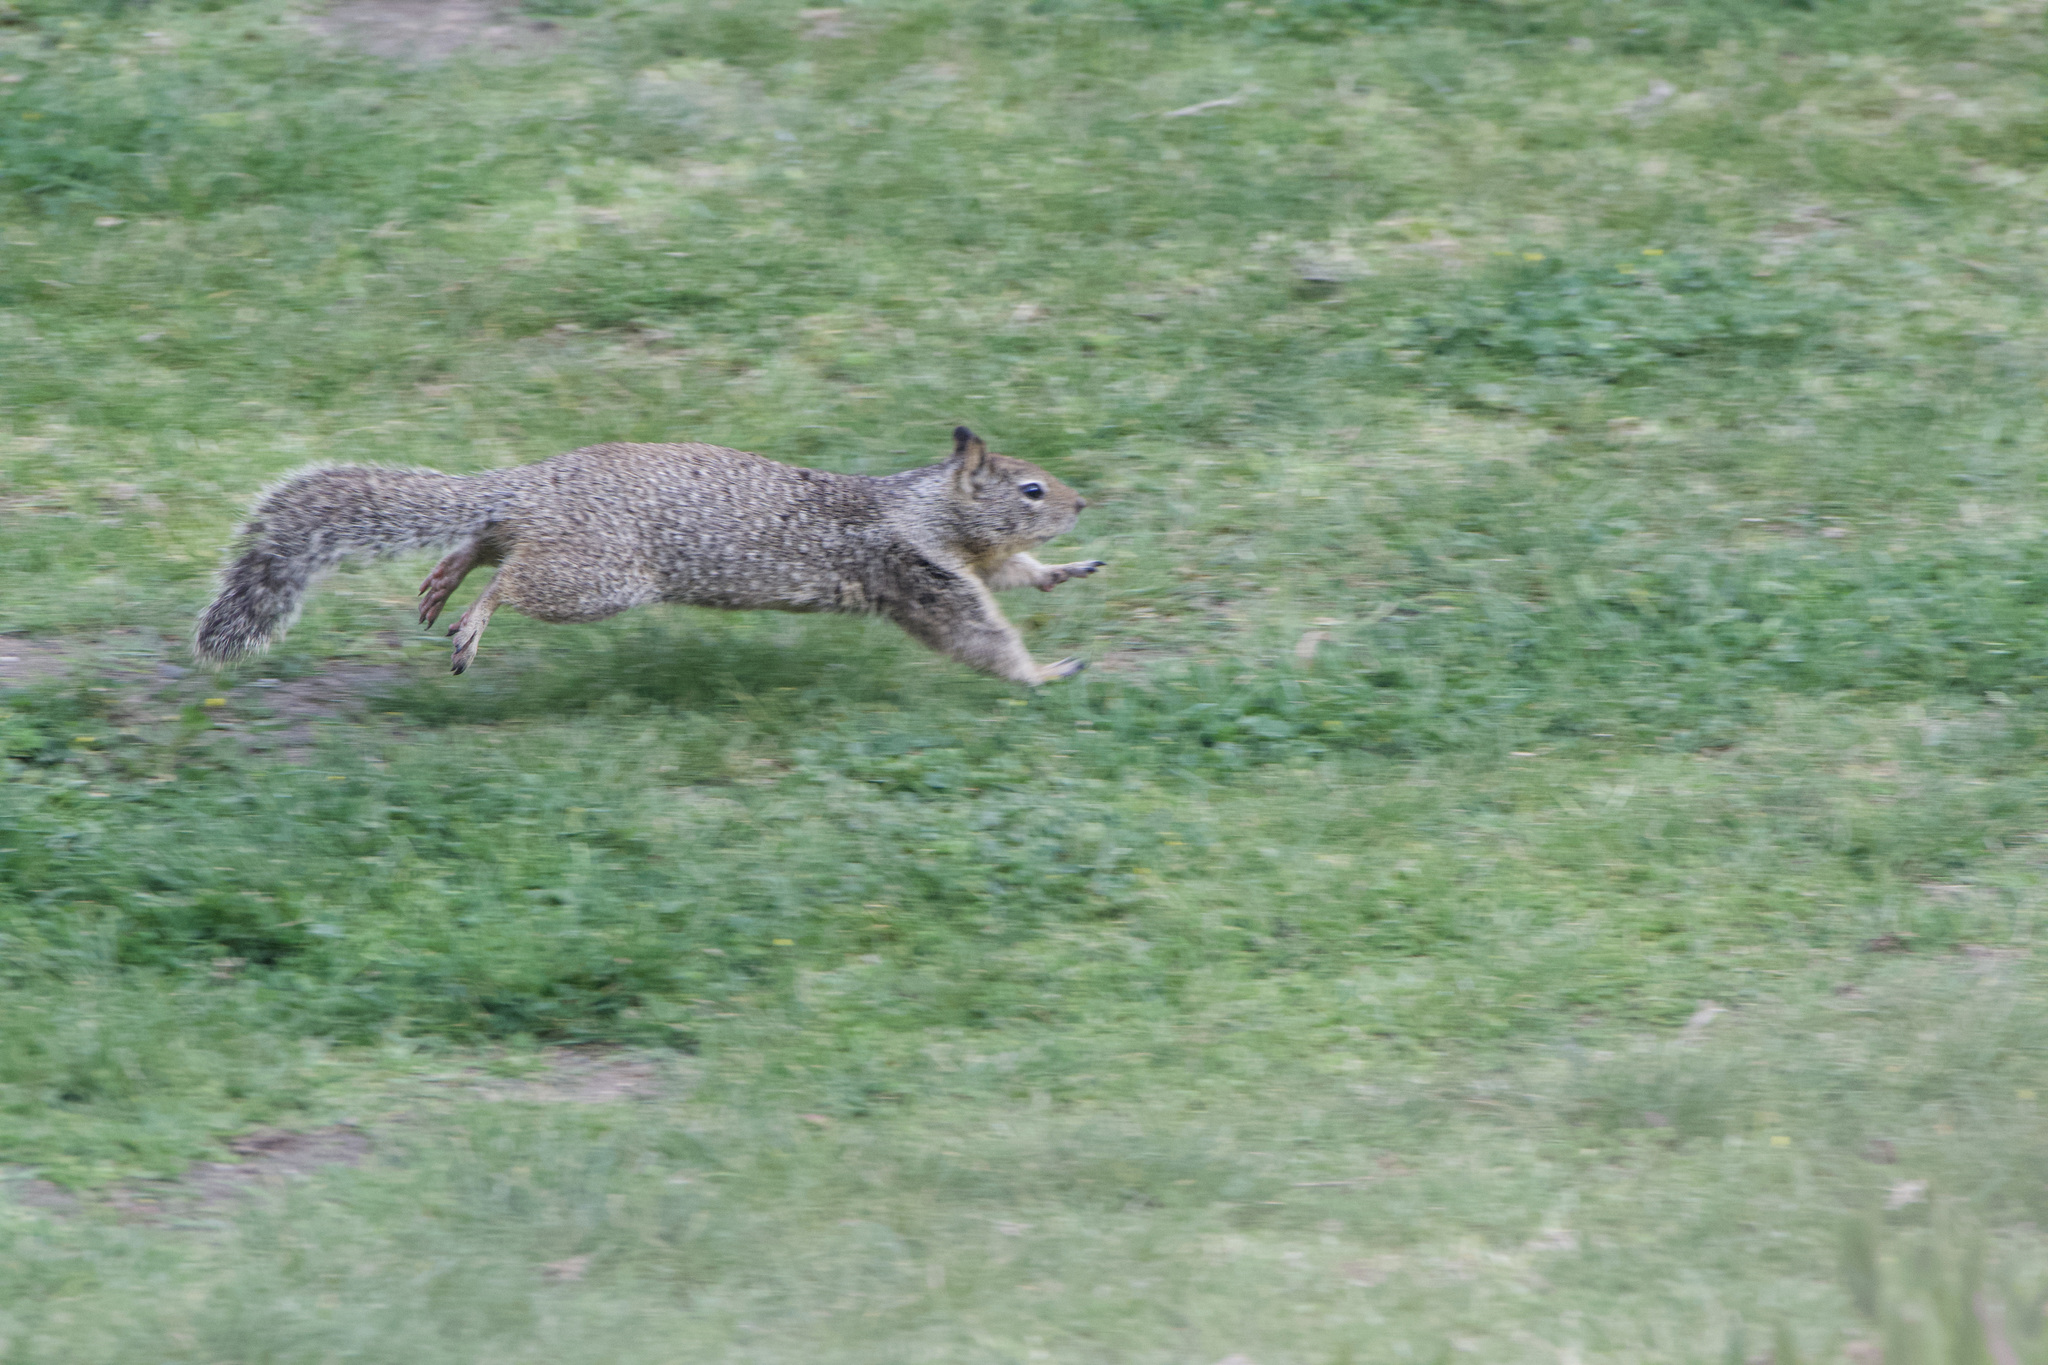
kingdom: Animalia
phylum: Chordata
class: Mammalia
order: Rodentia
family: Sciuridae
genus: Otospermophilus
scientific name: Otospermophilus beecheyi
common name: California ground squirrel
